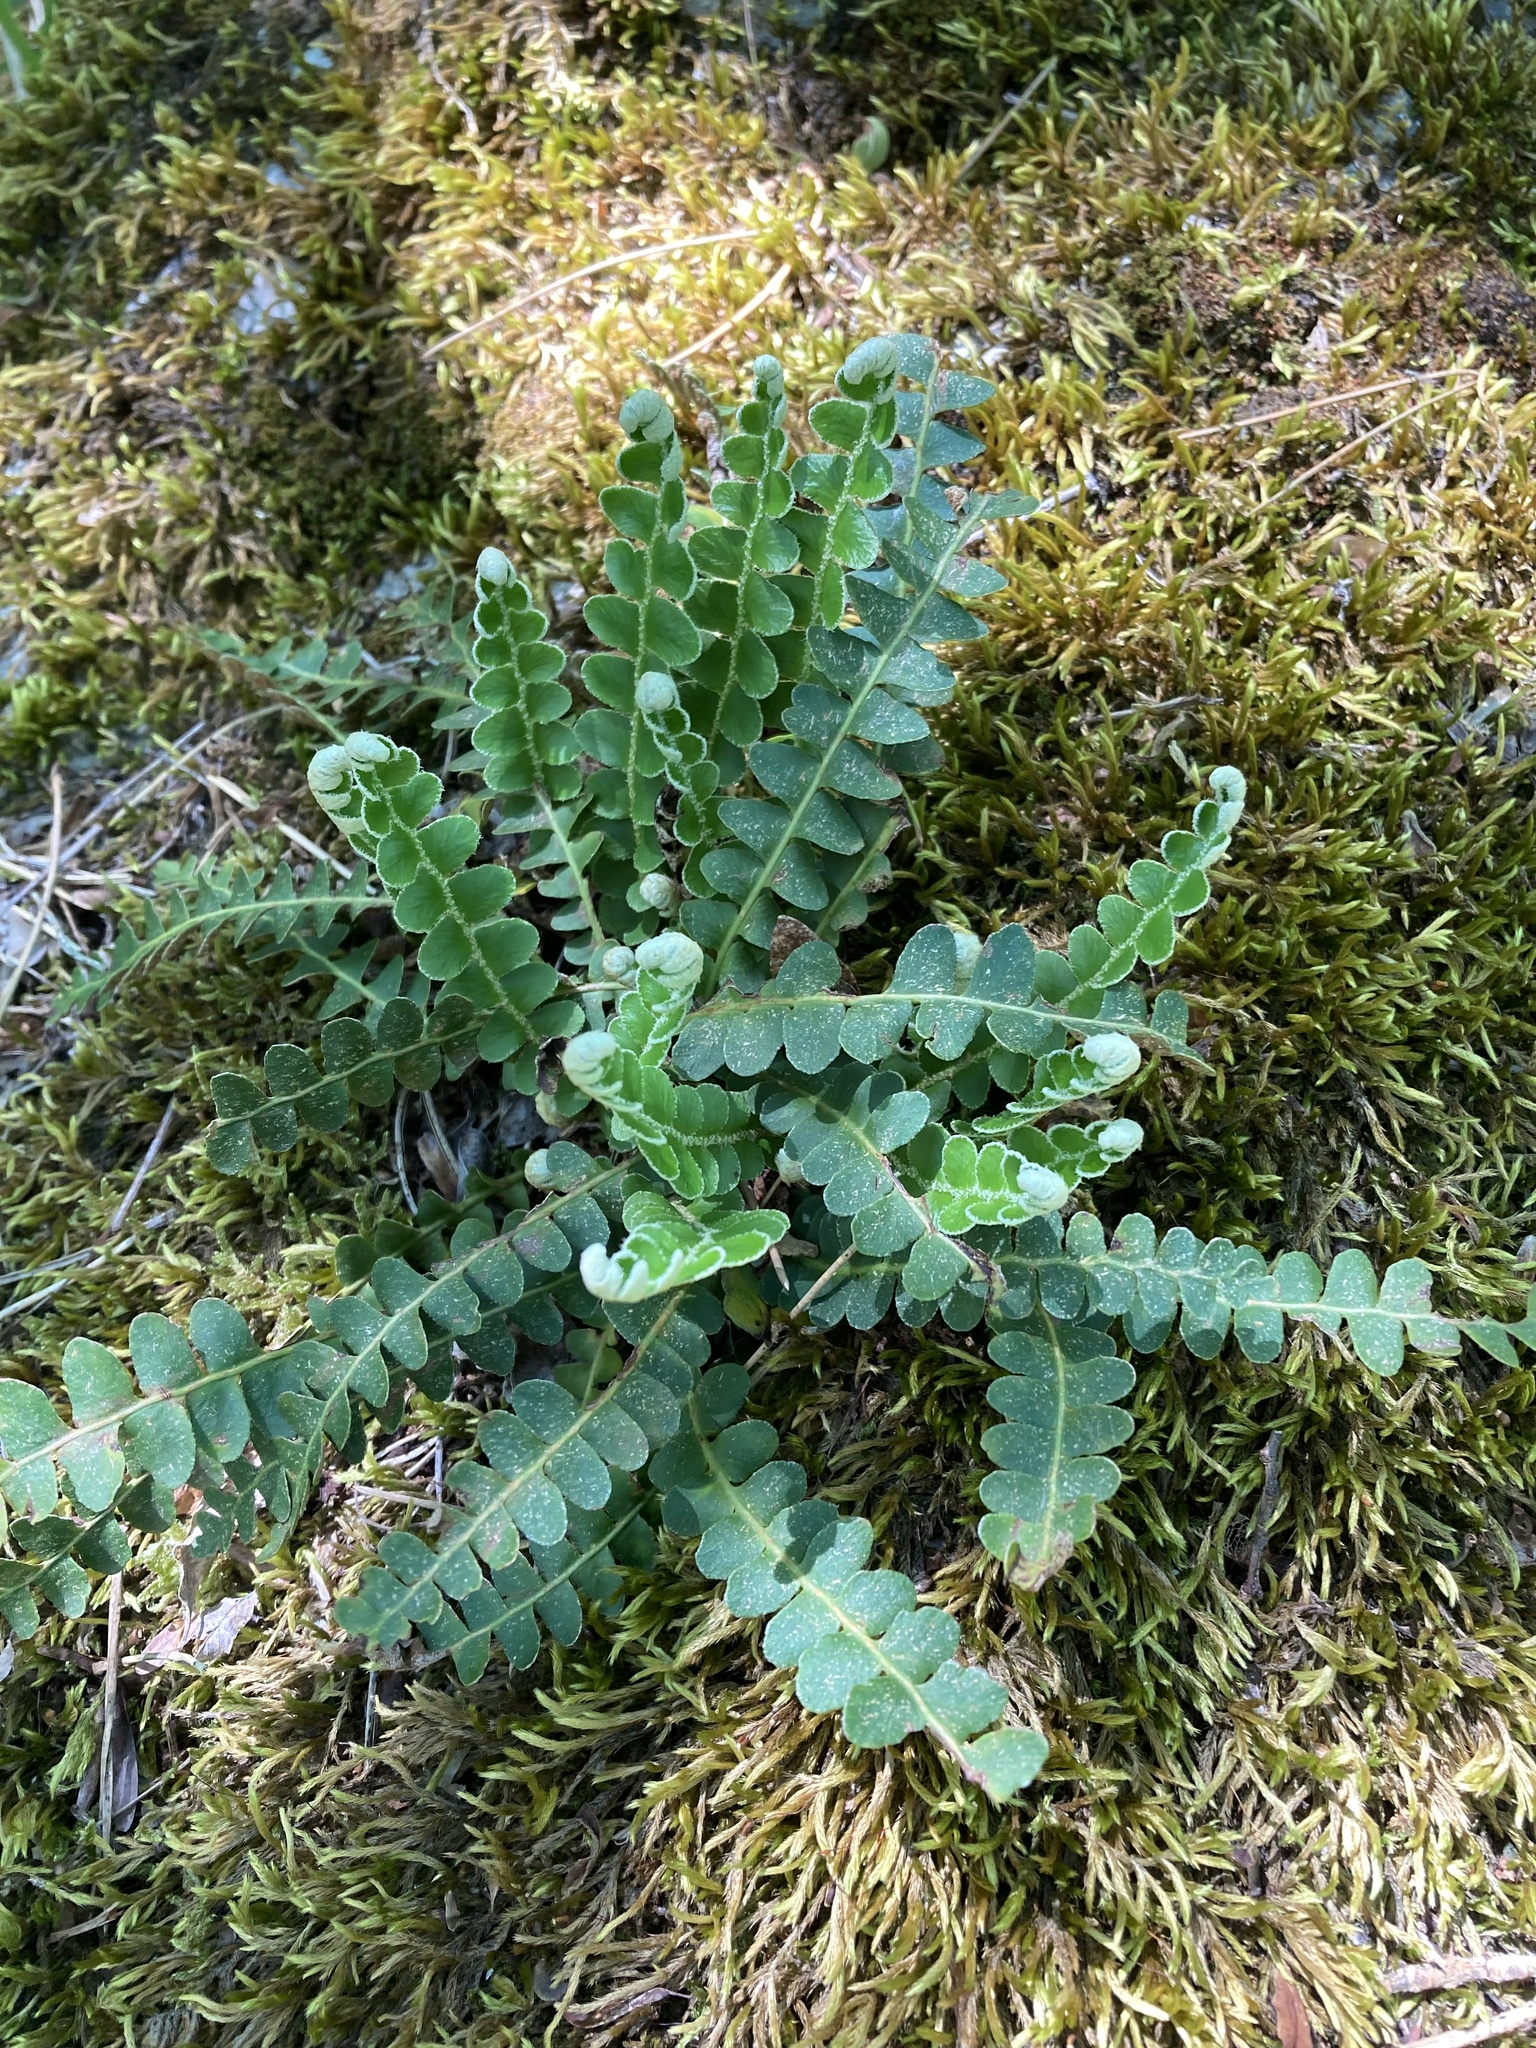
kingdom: Plantae
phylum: Tracheophyta
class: Polypodiopsida
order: Polypodiales
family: Aspleniaceae
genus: Asplenium
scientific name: Asplenium ceterach
